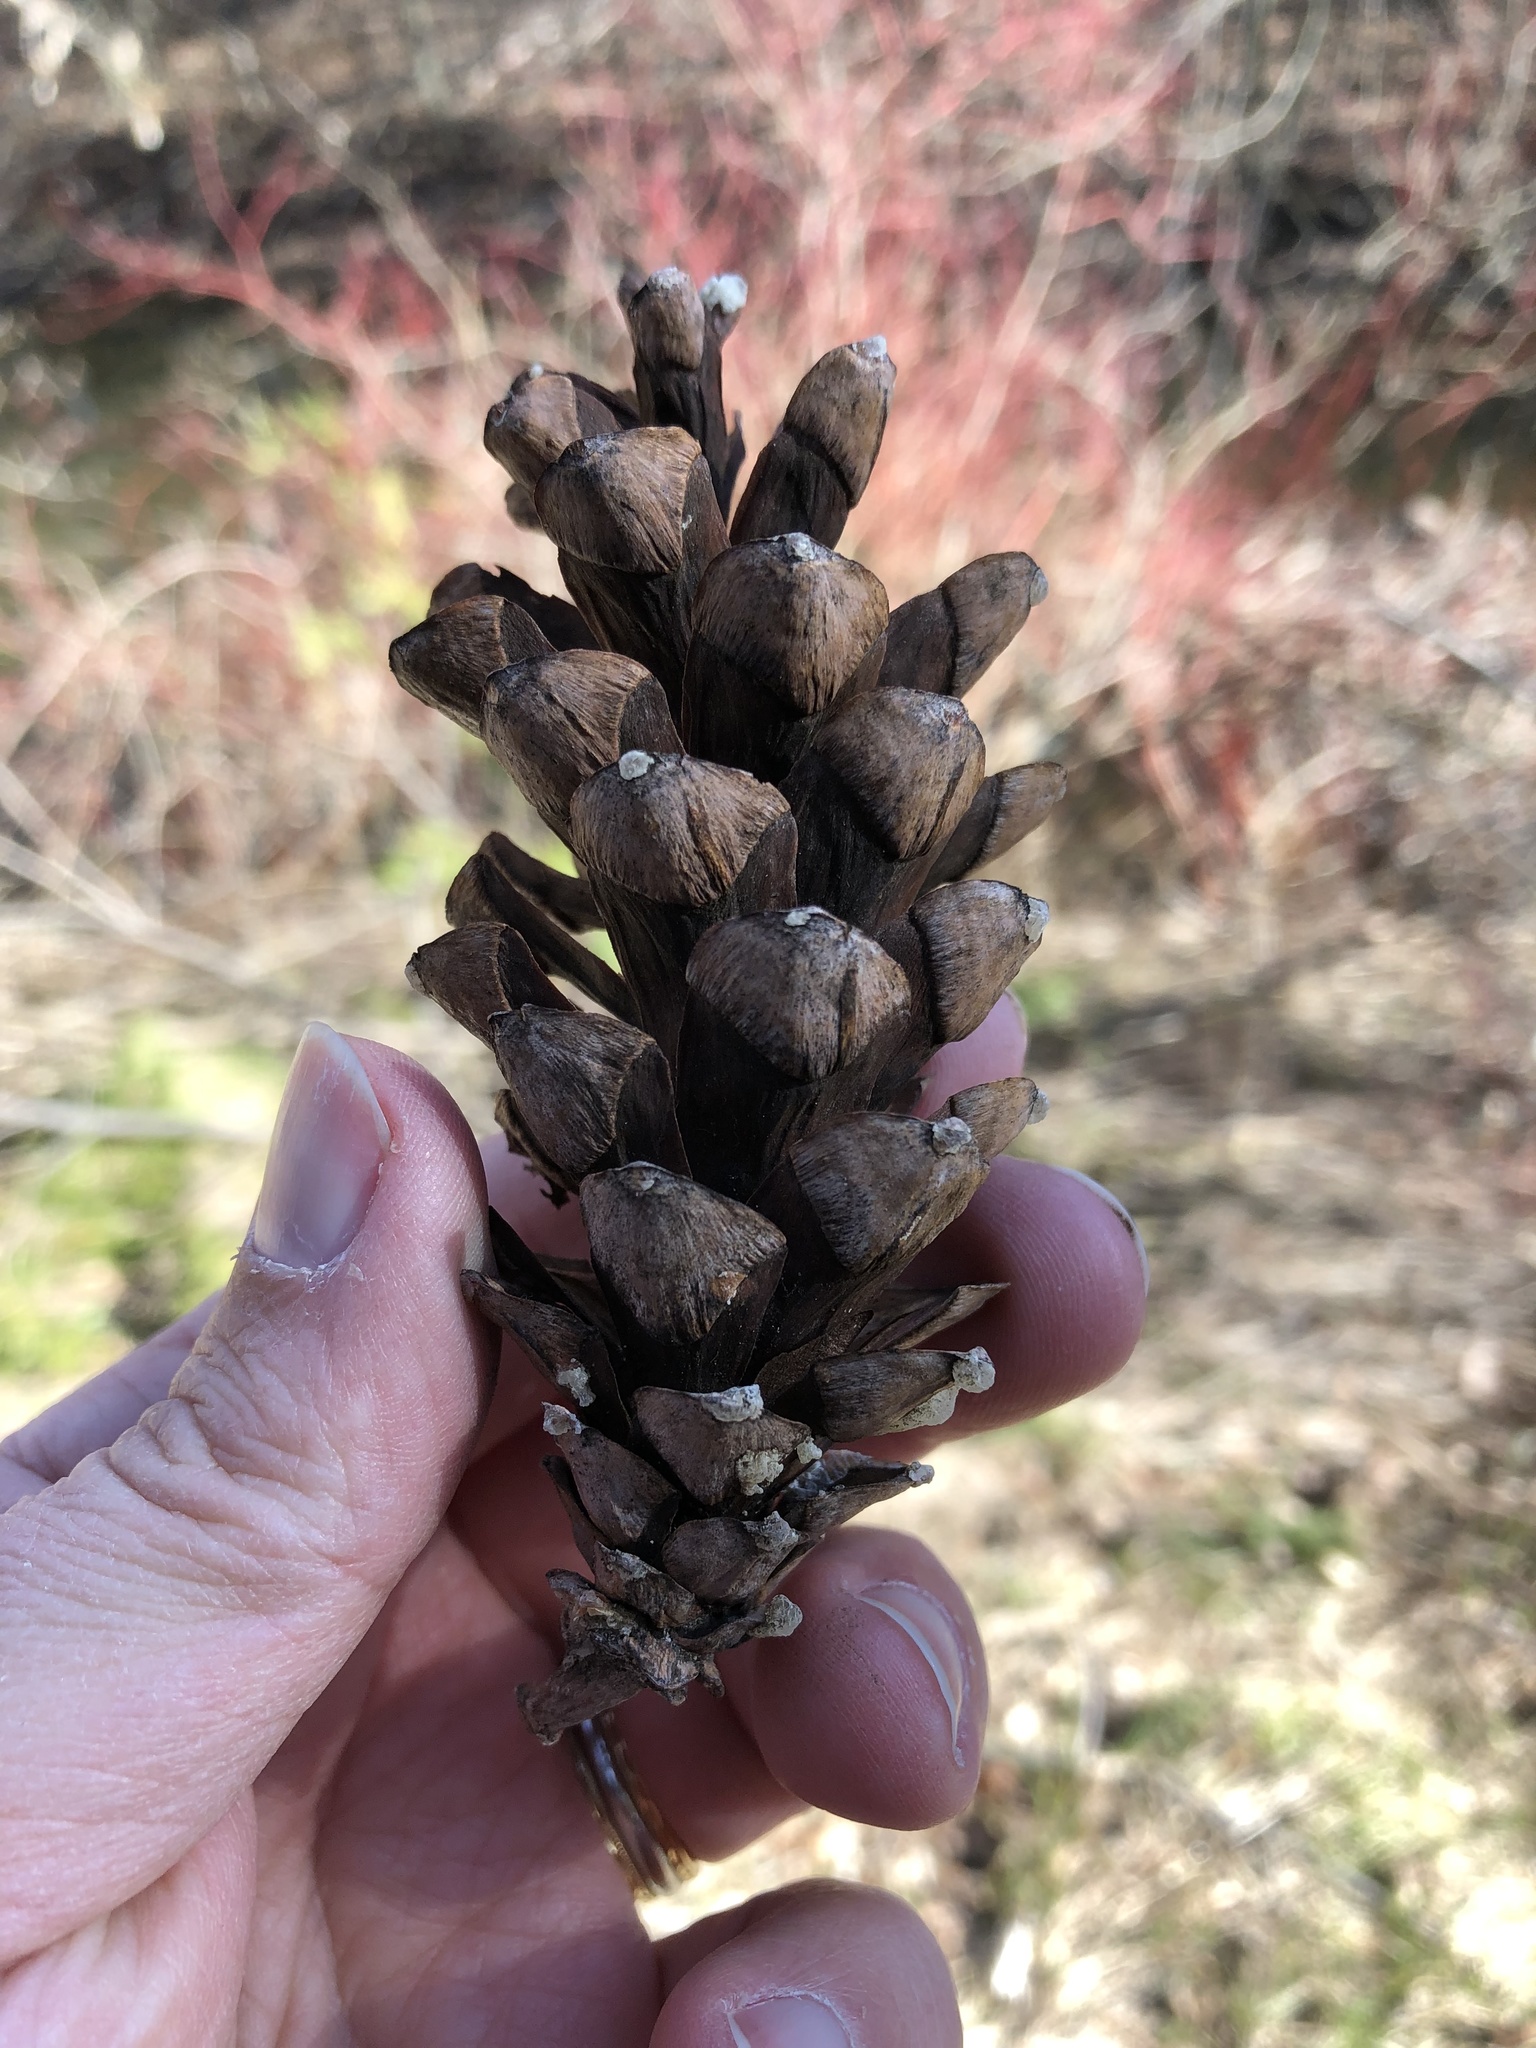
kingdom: Plantae
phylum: Tracheophyta
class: Pinopsida
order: Pinales
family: Pinaceae
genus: Pinus
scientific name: Pinus strobus
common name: Weymouth pine
